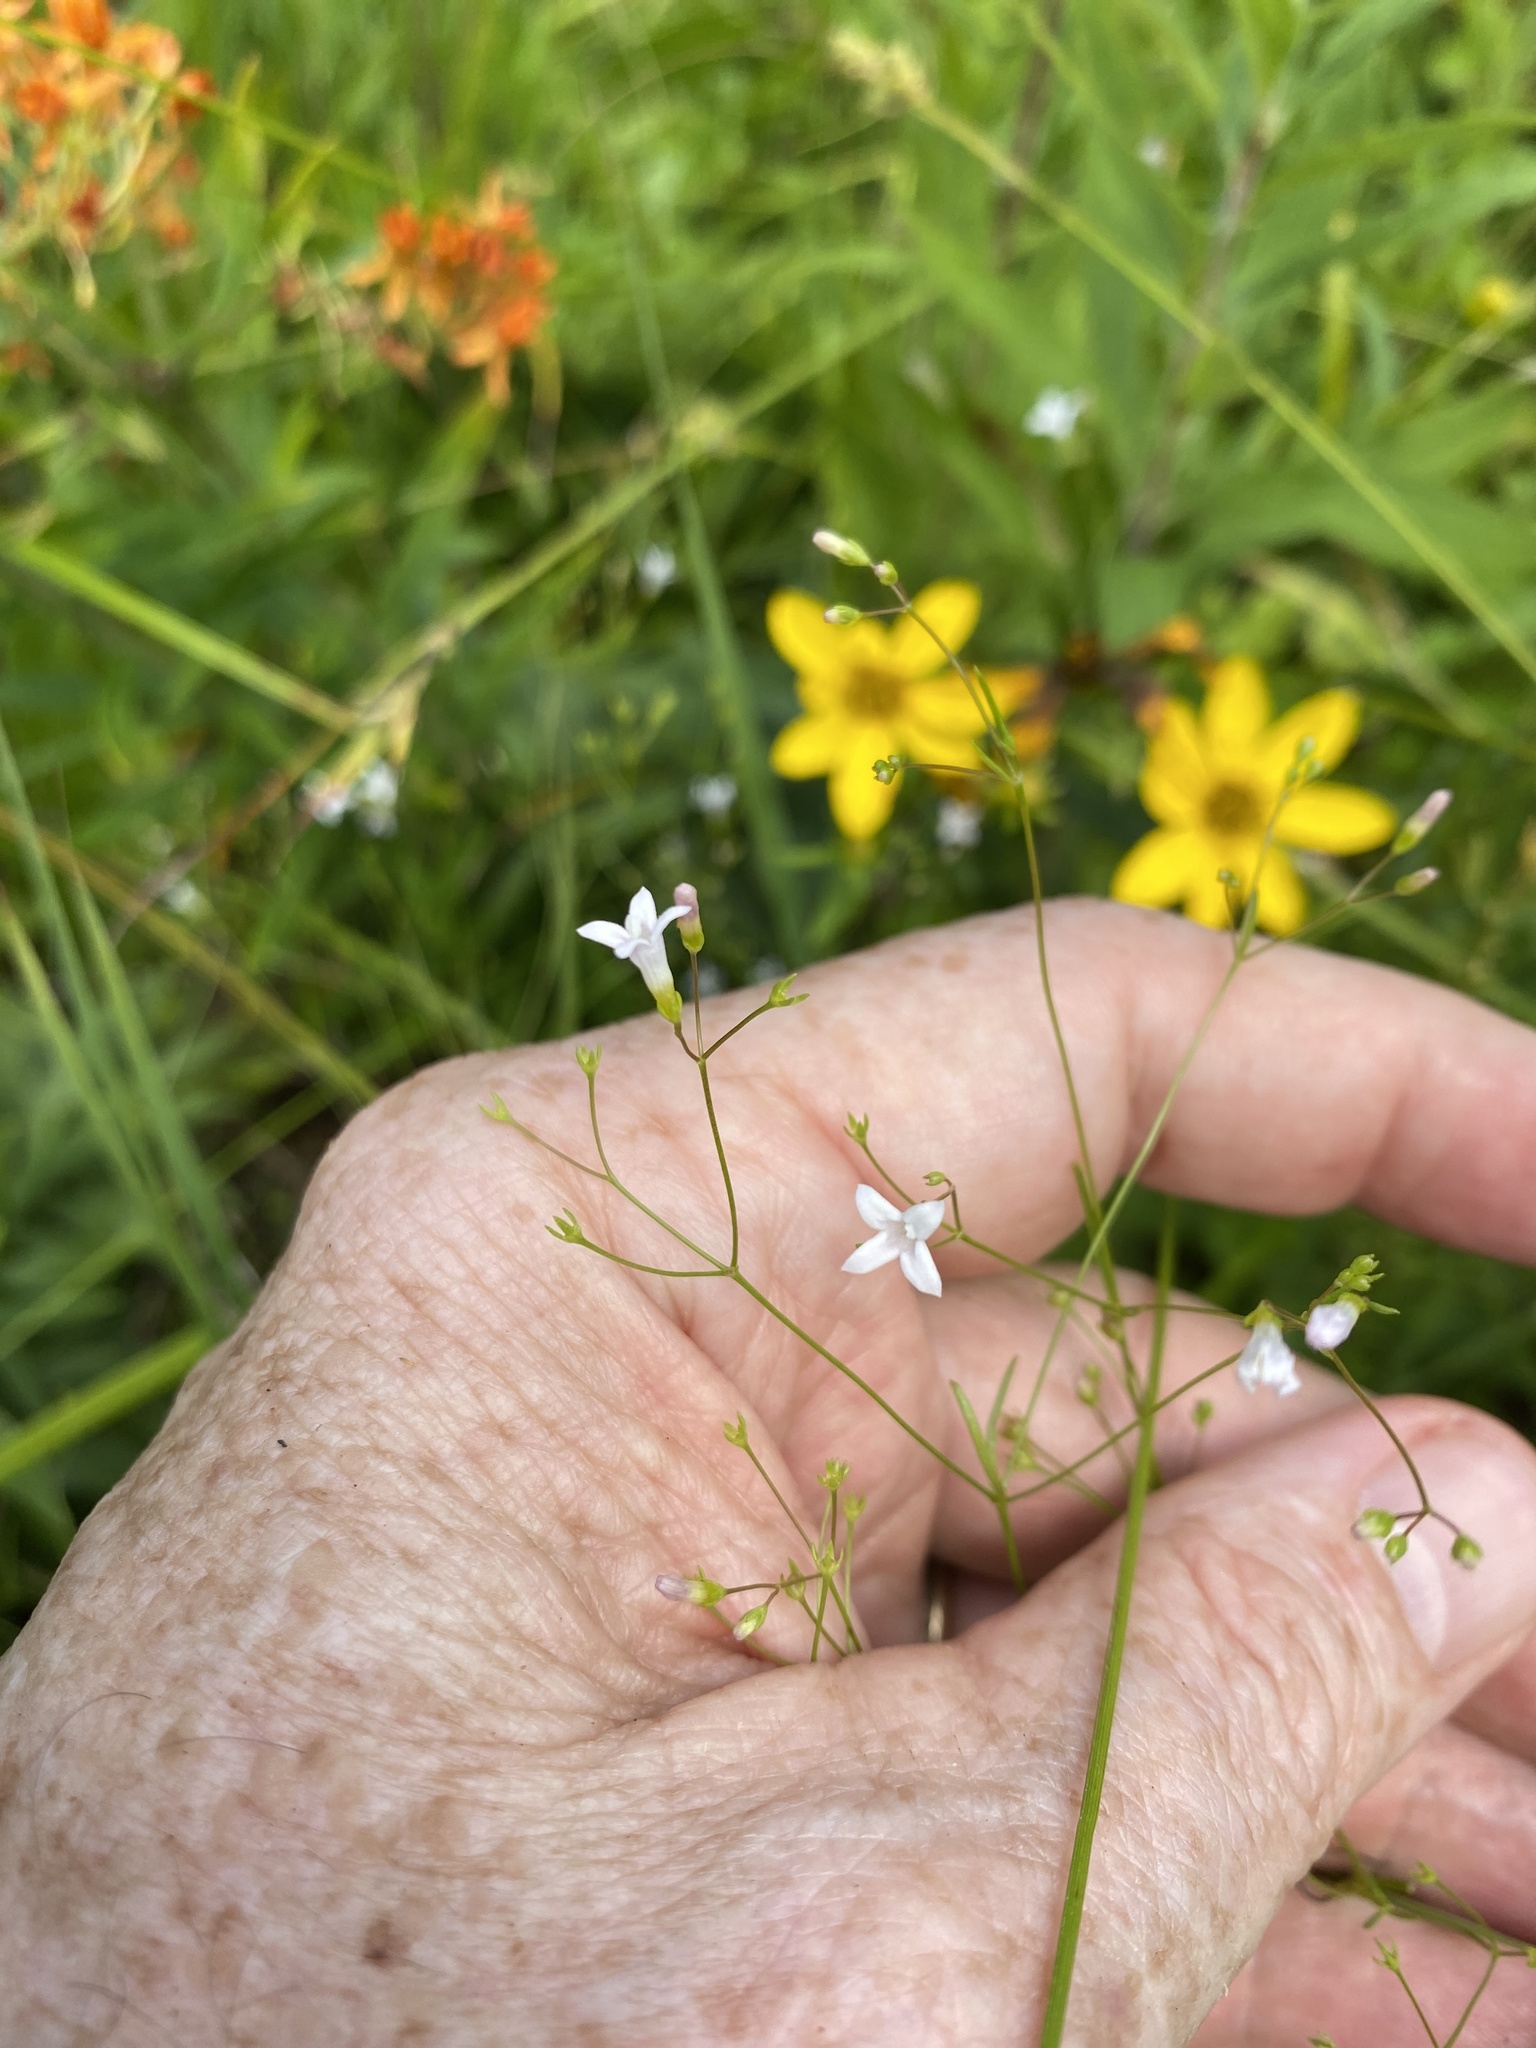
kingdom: Plantae
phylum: Tracheophyta
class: Magnoliopsida
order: Gentianales
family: Rubiaceae
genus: Houstonia
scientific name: Houstonia longifolia
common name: Long-leaved bluets
